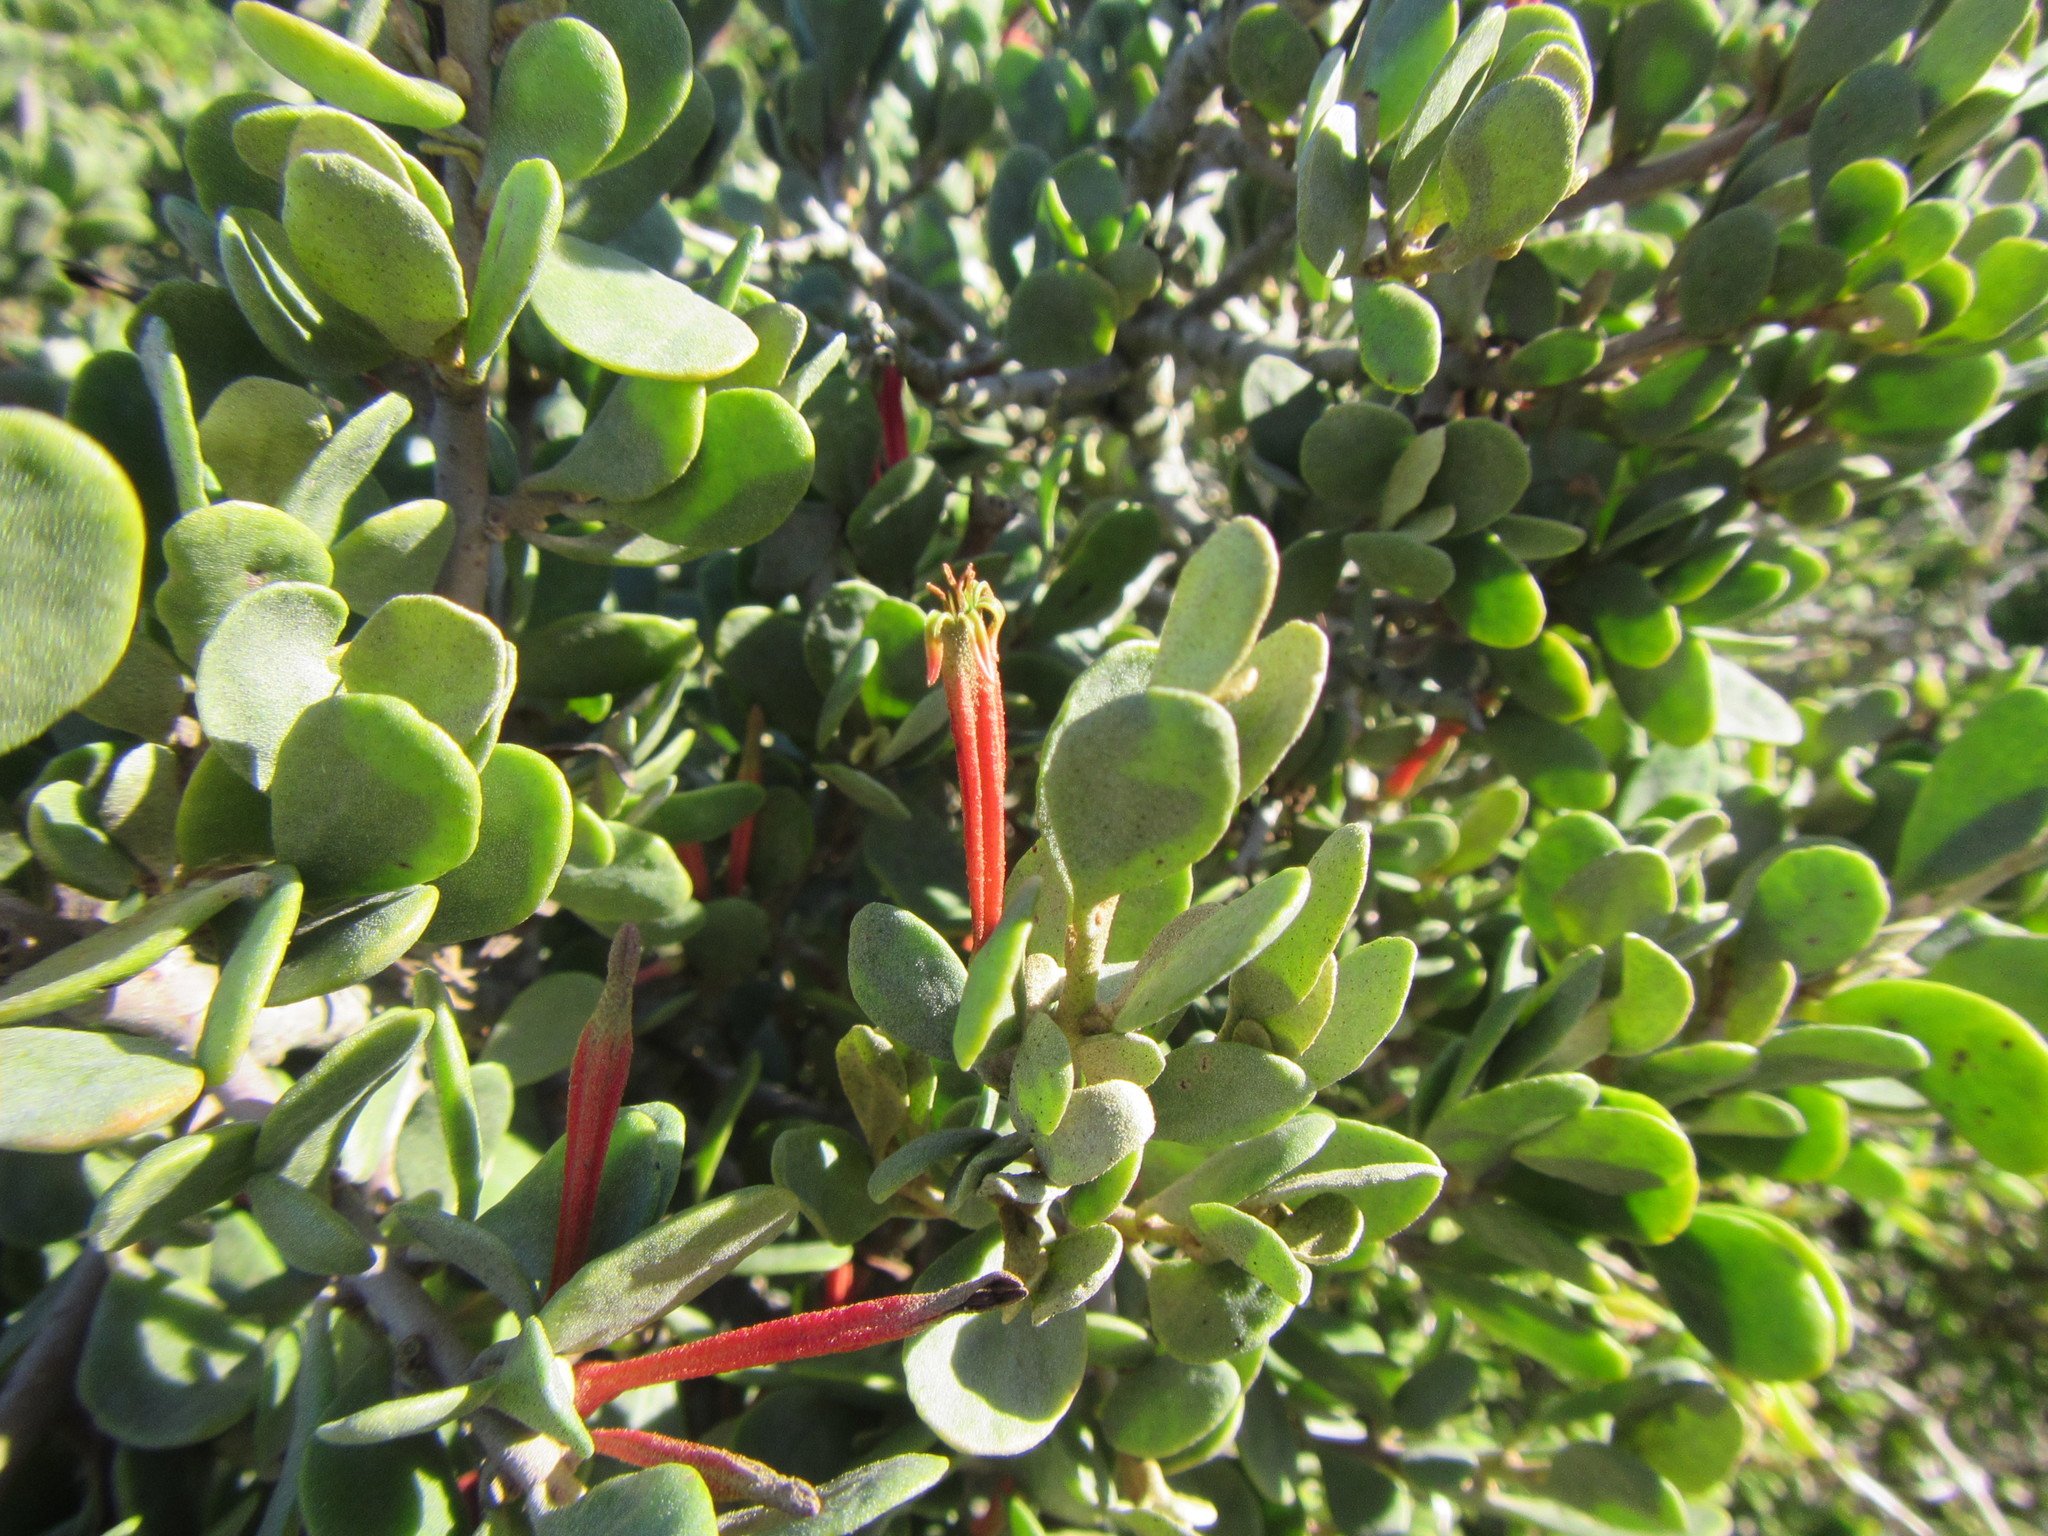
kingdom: Plantae
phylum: Tracheophyta
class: Magnoliopsida
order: Santalales
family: Loranthaceae
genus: Septulina
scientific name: Septulina glauca
